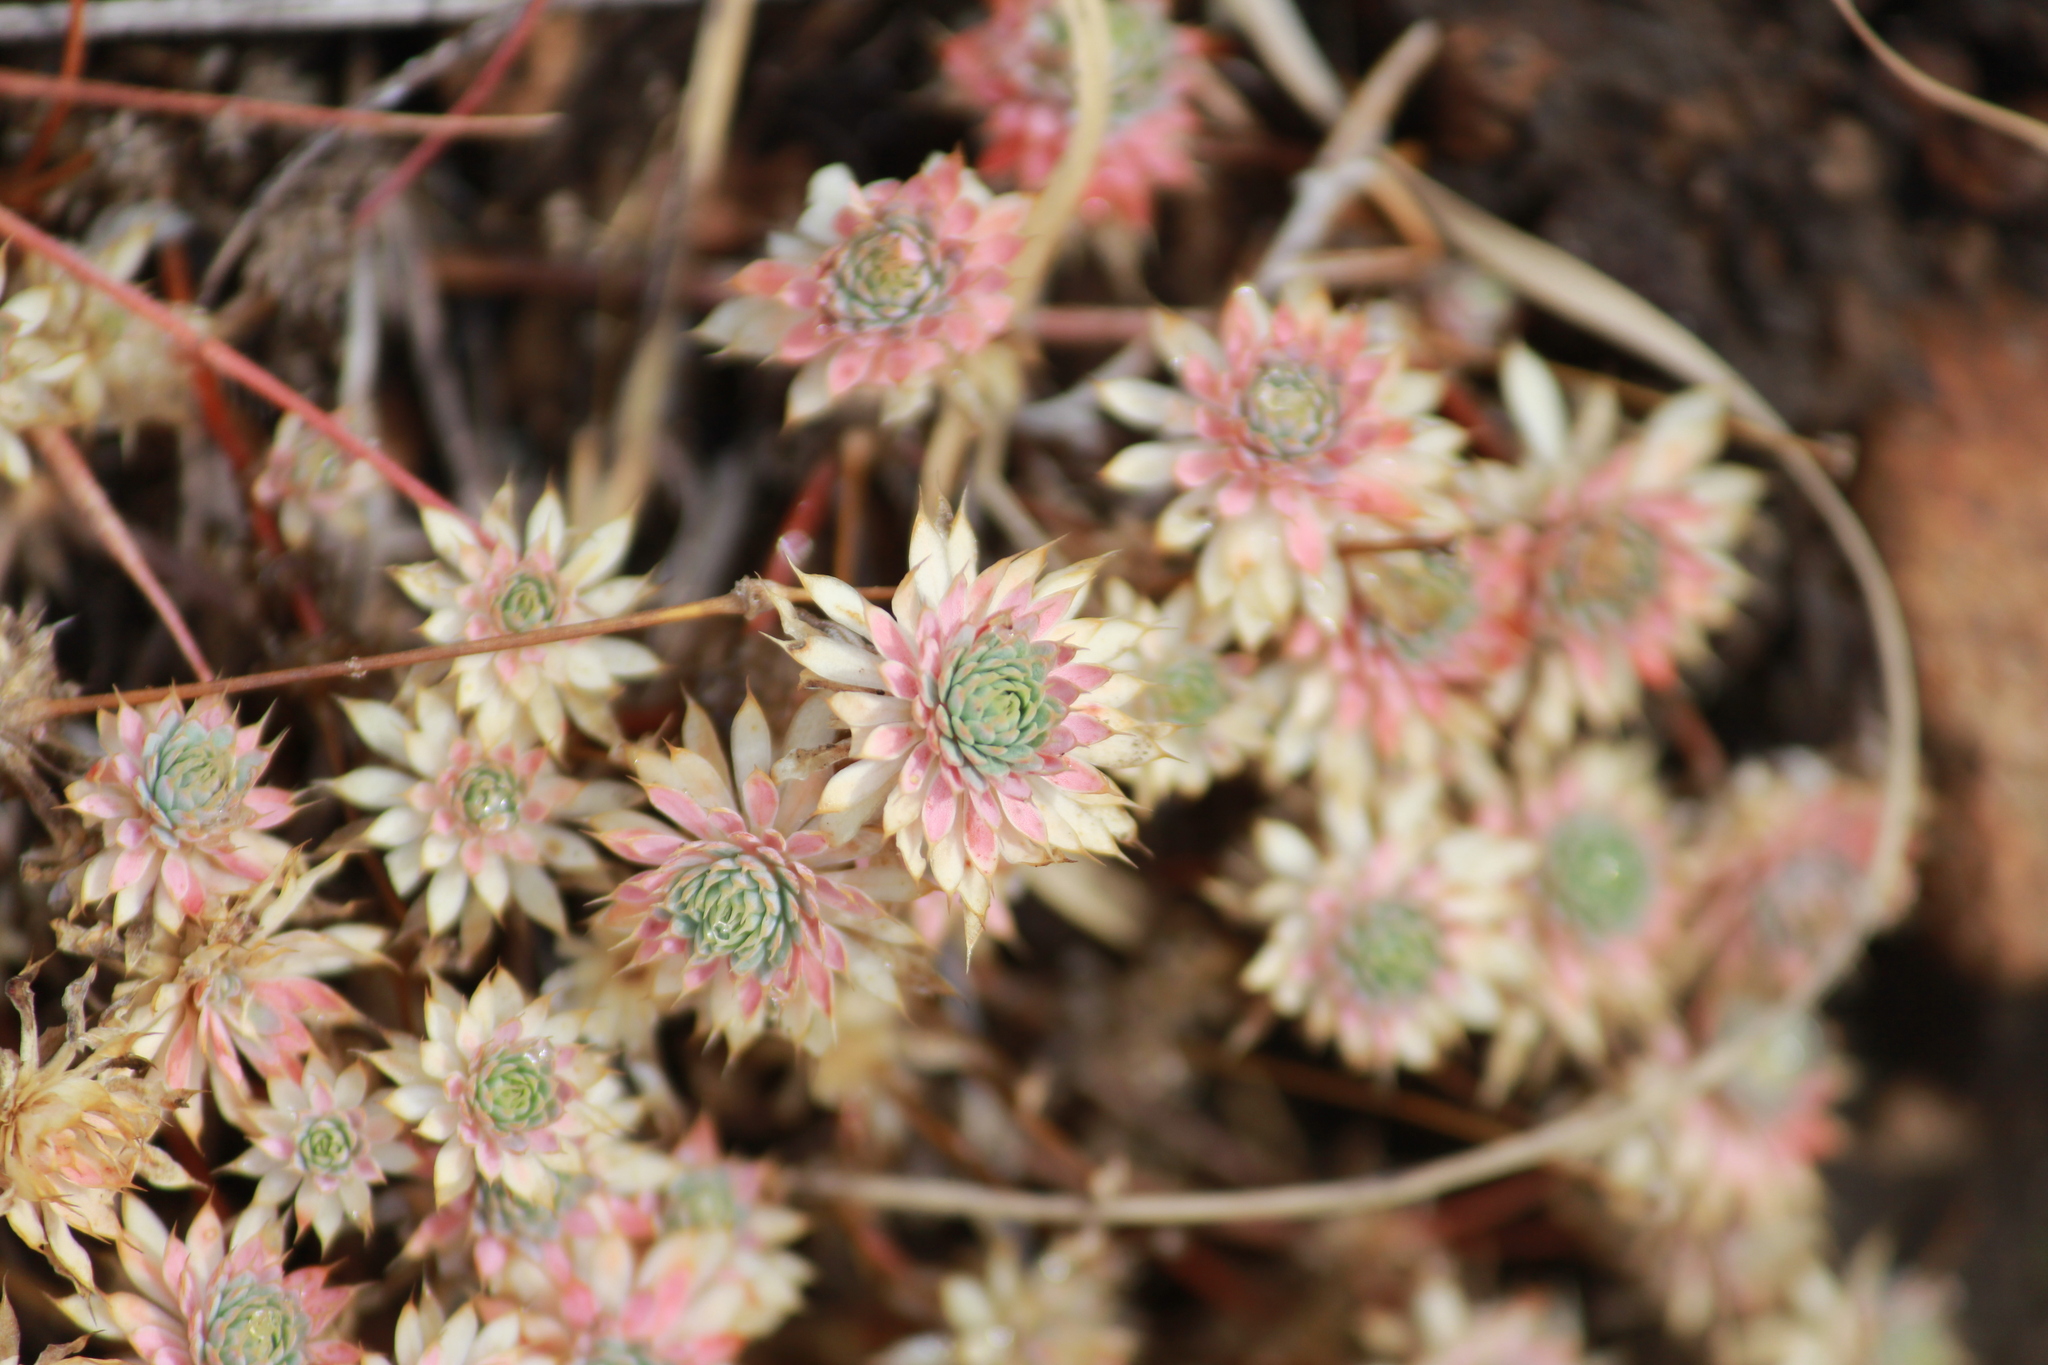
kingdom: Plantae
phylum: Tracheophyta
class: Magnoliopsida
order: Caryophyllales
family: Molluginaceae
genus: Psammotropha
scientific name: Psammotropha mucronata
